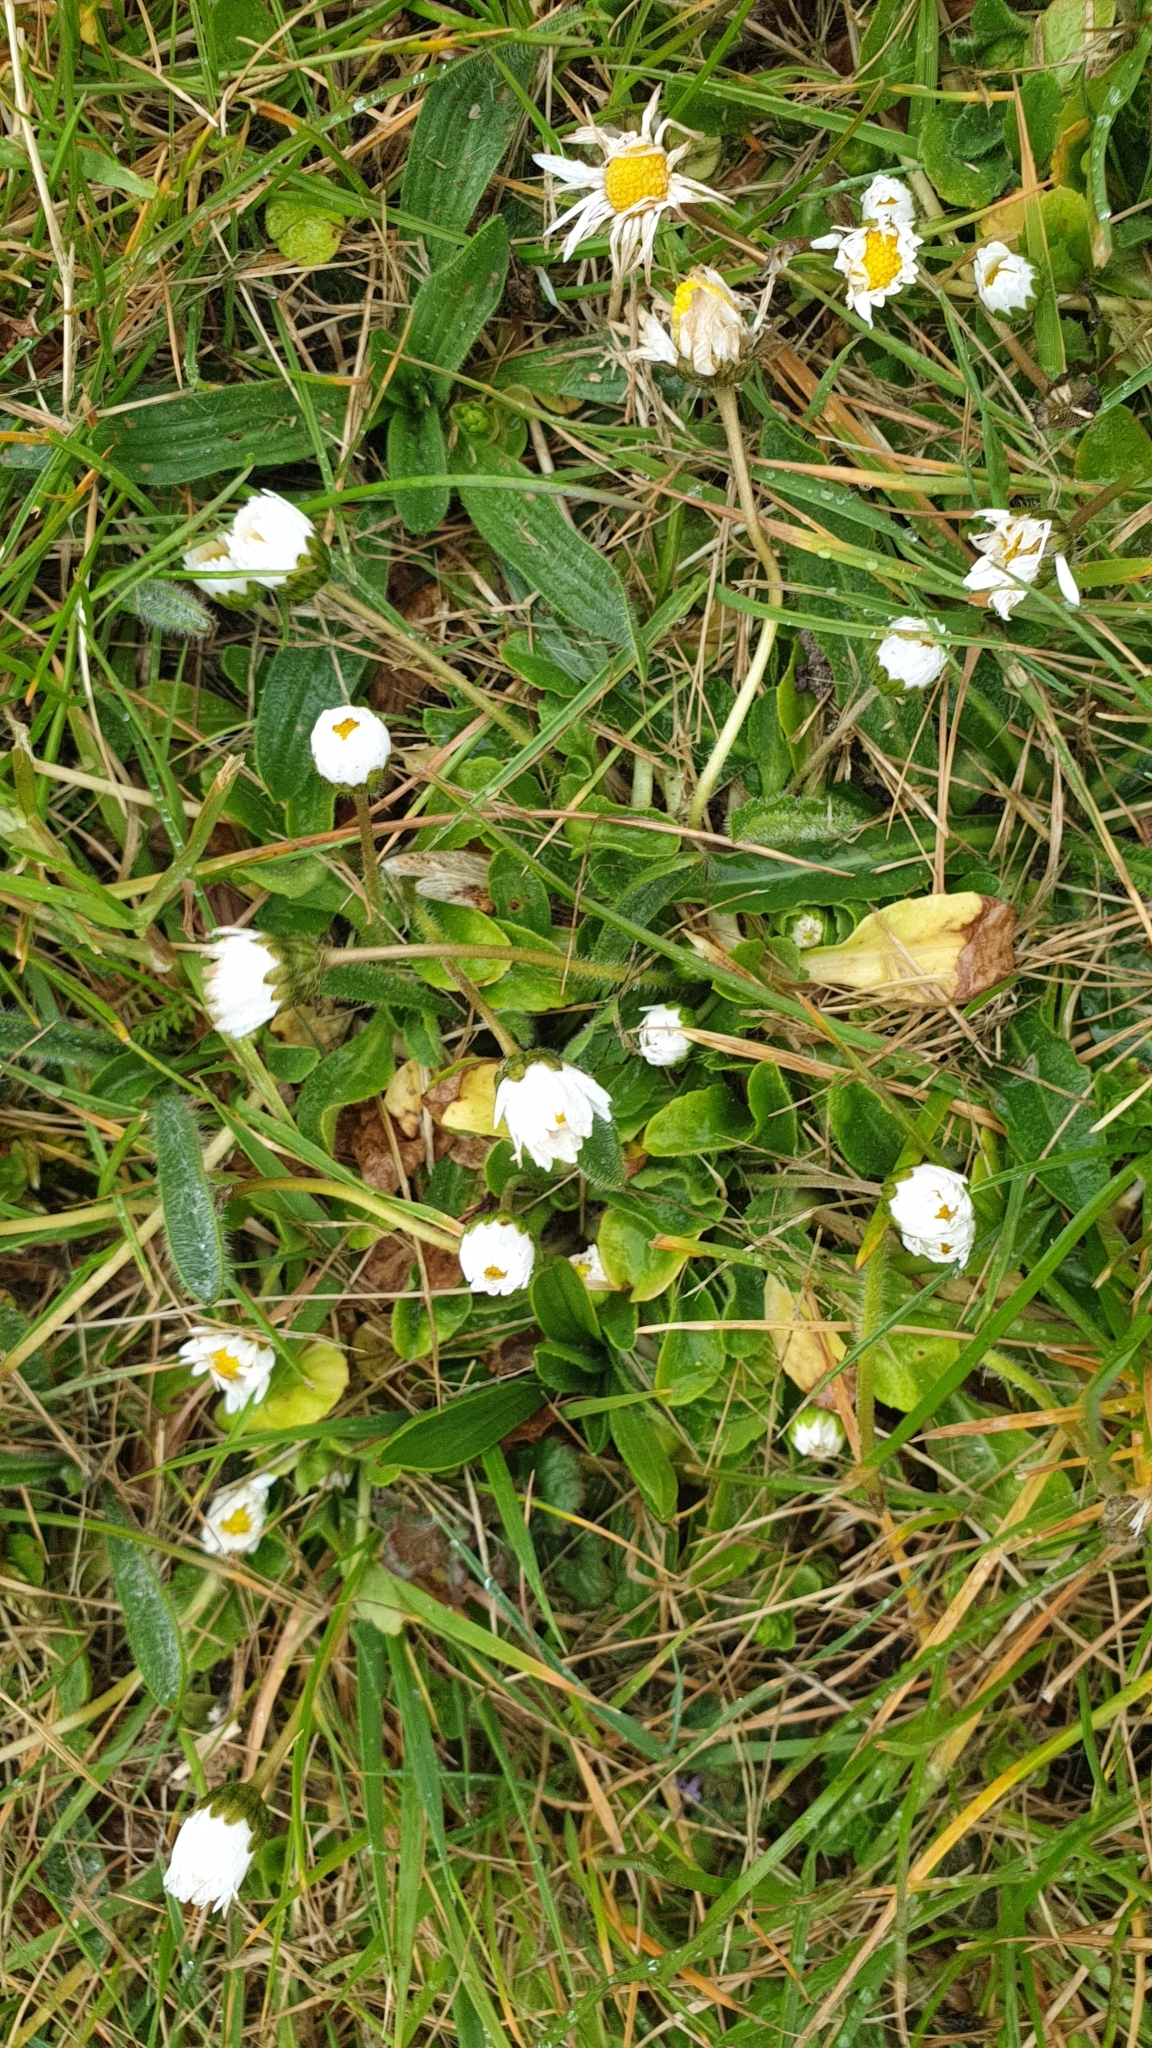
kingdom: Plantae
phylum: Tracheophyta
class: Magnoliopsida
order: Asterales
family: Asteraceae
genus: Bellis
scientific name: Bellis perennis
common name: Lawndaisy
